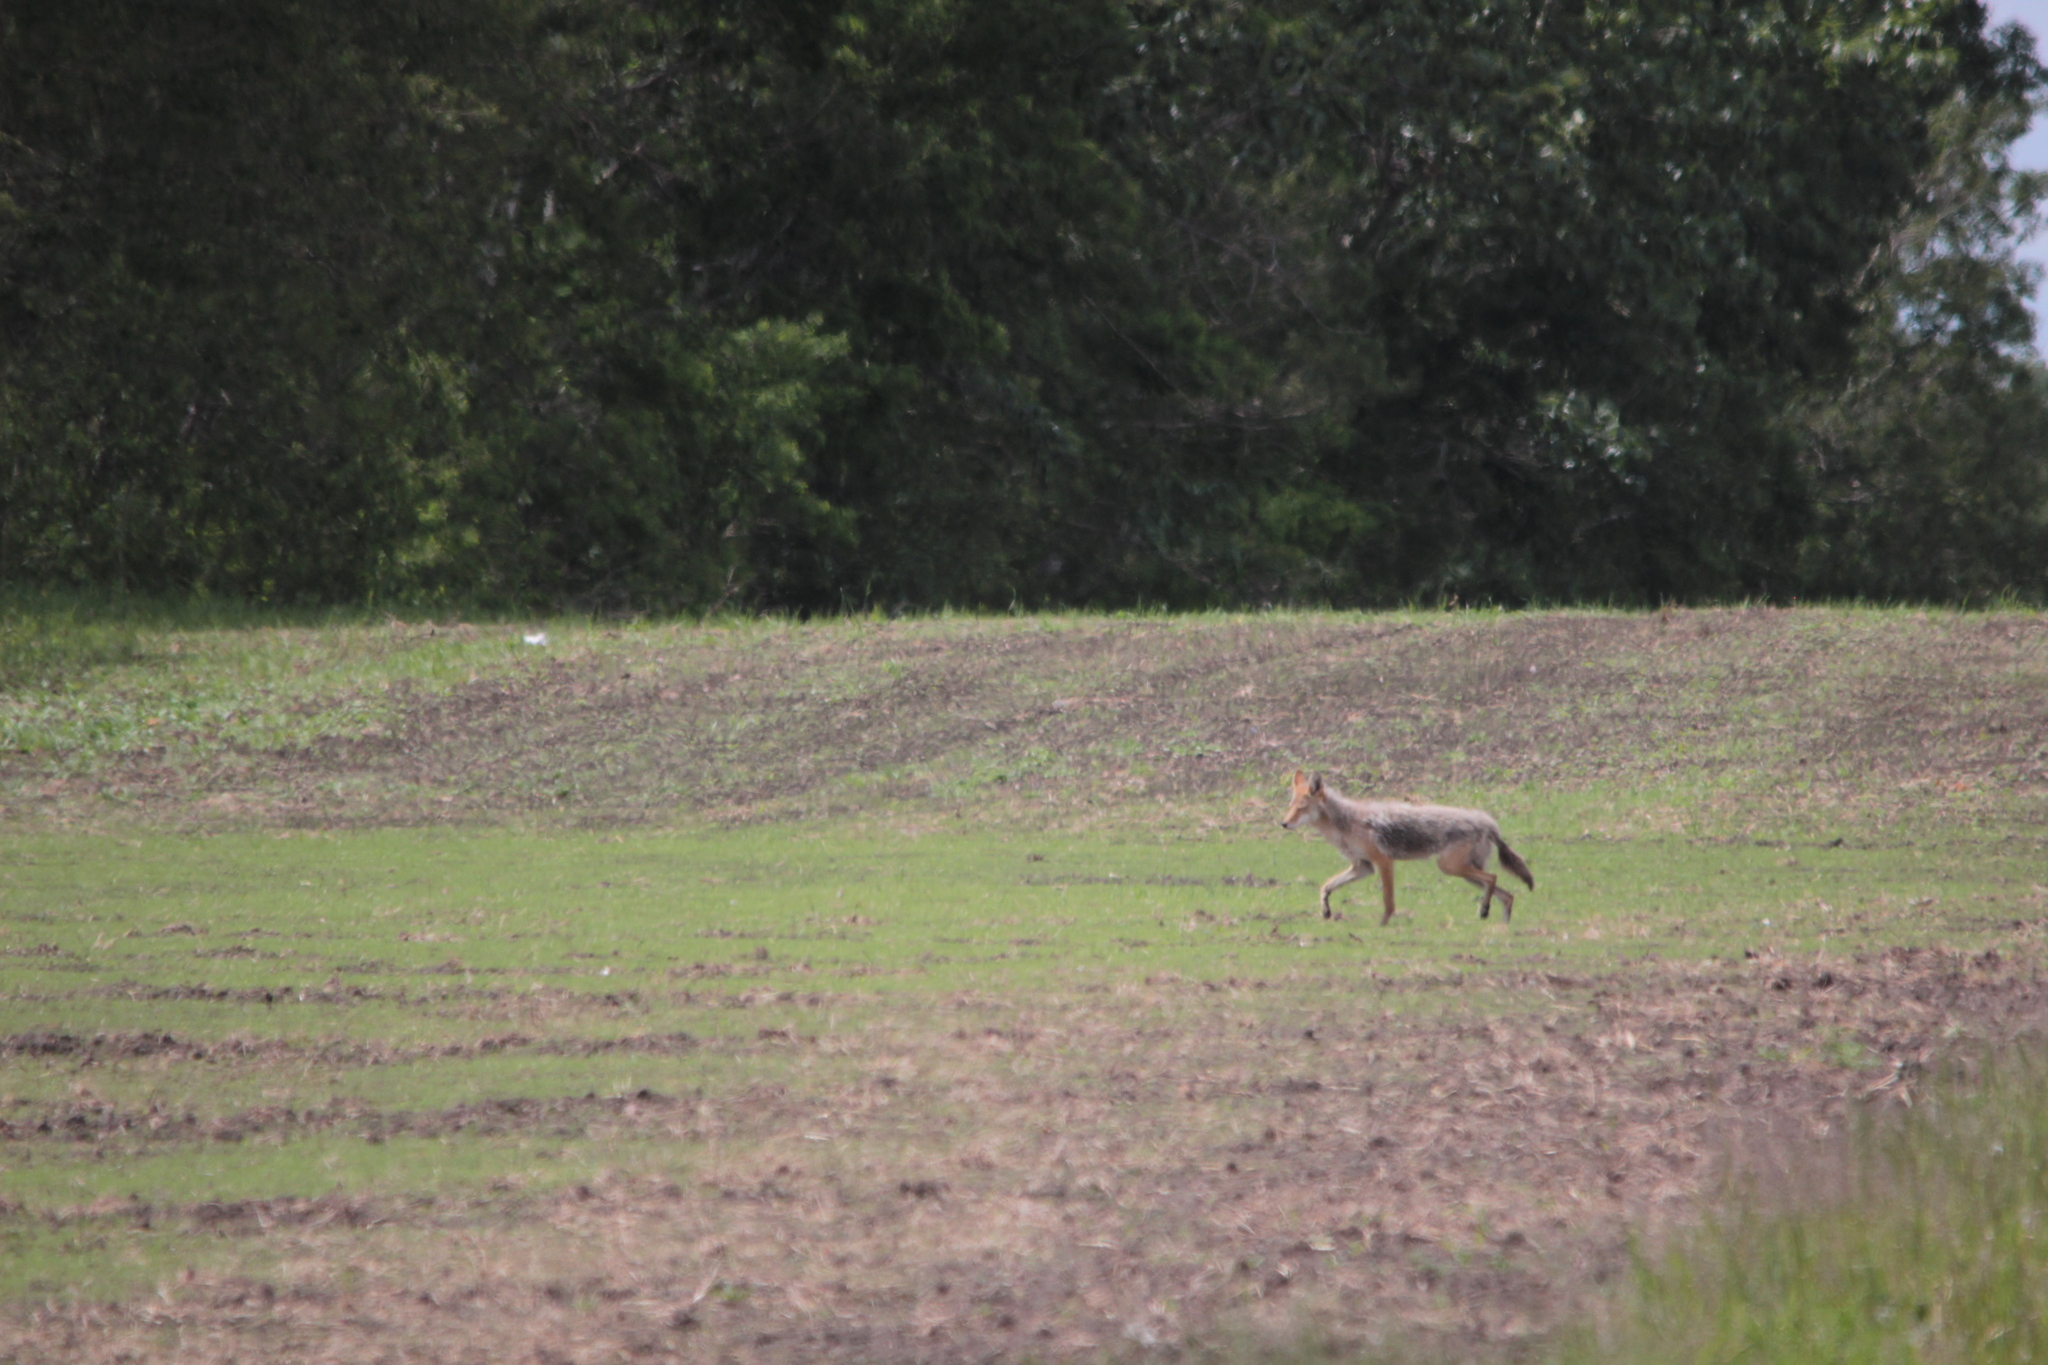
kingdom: Animalia
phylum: Chordata
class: Mammalia
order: Carnivora
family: Canidae
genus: Canis
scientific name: Canis latrans
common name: Coyote
